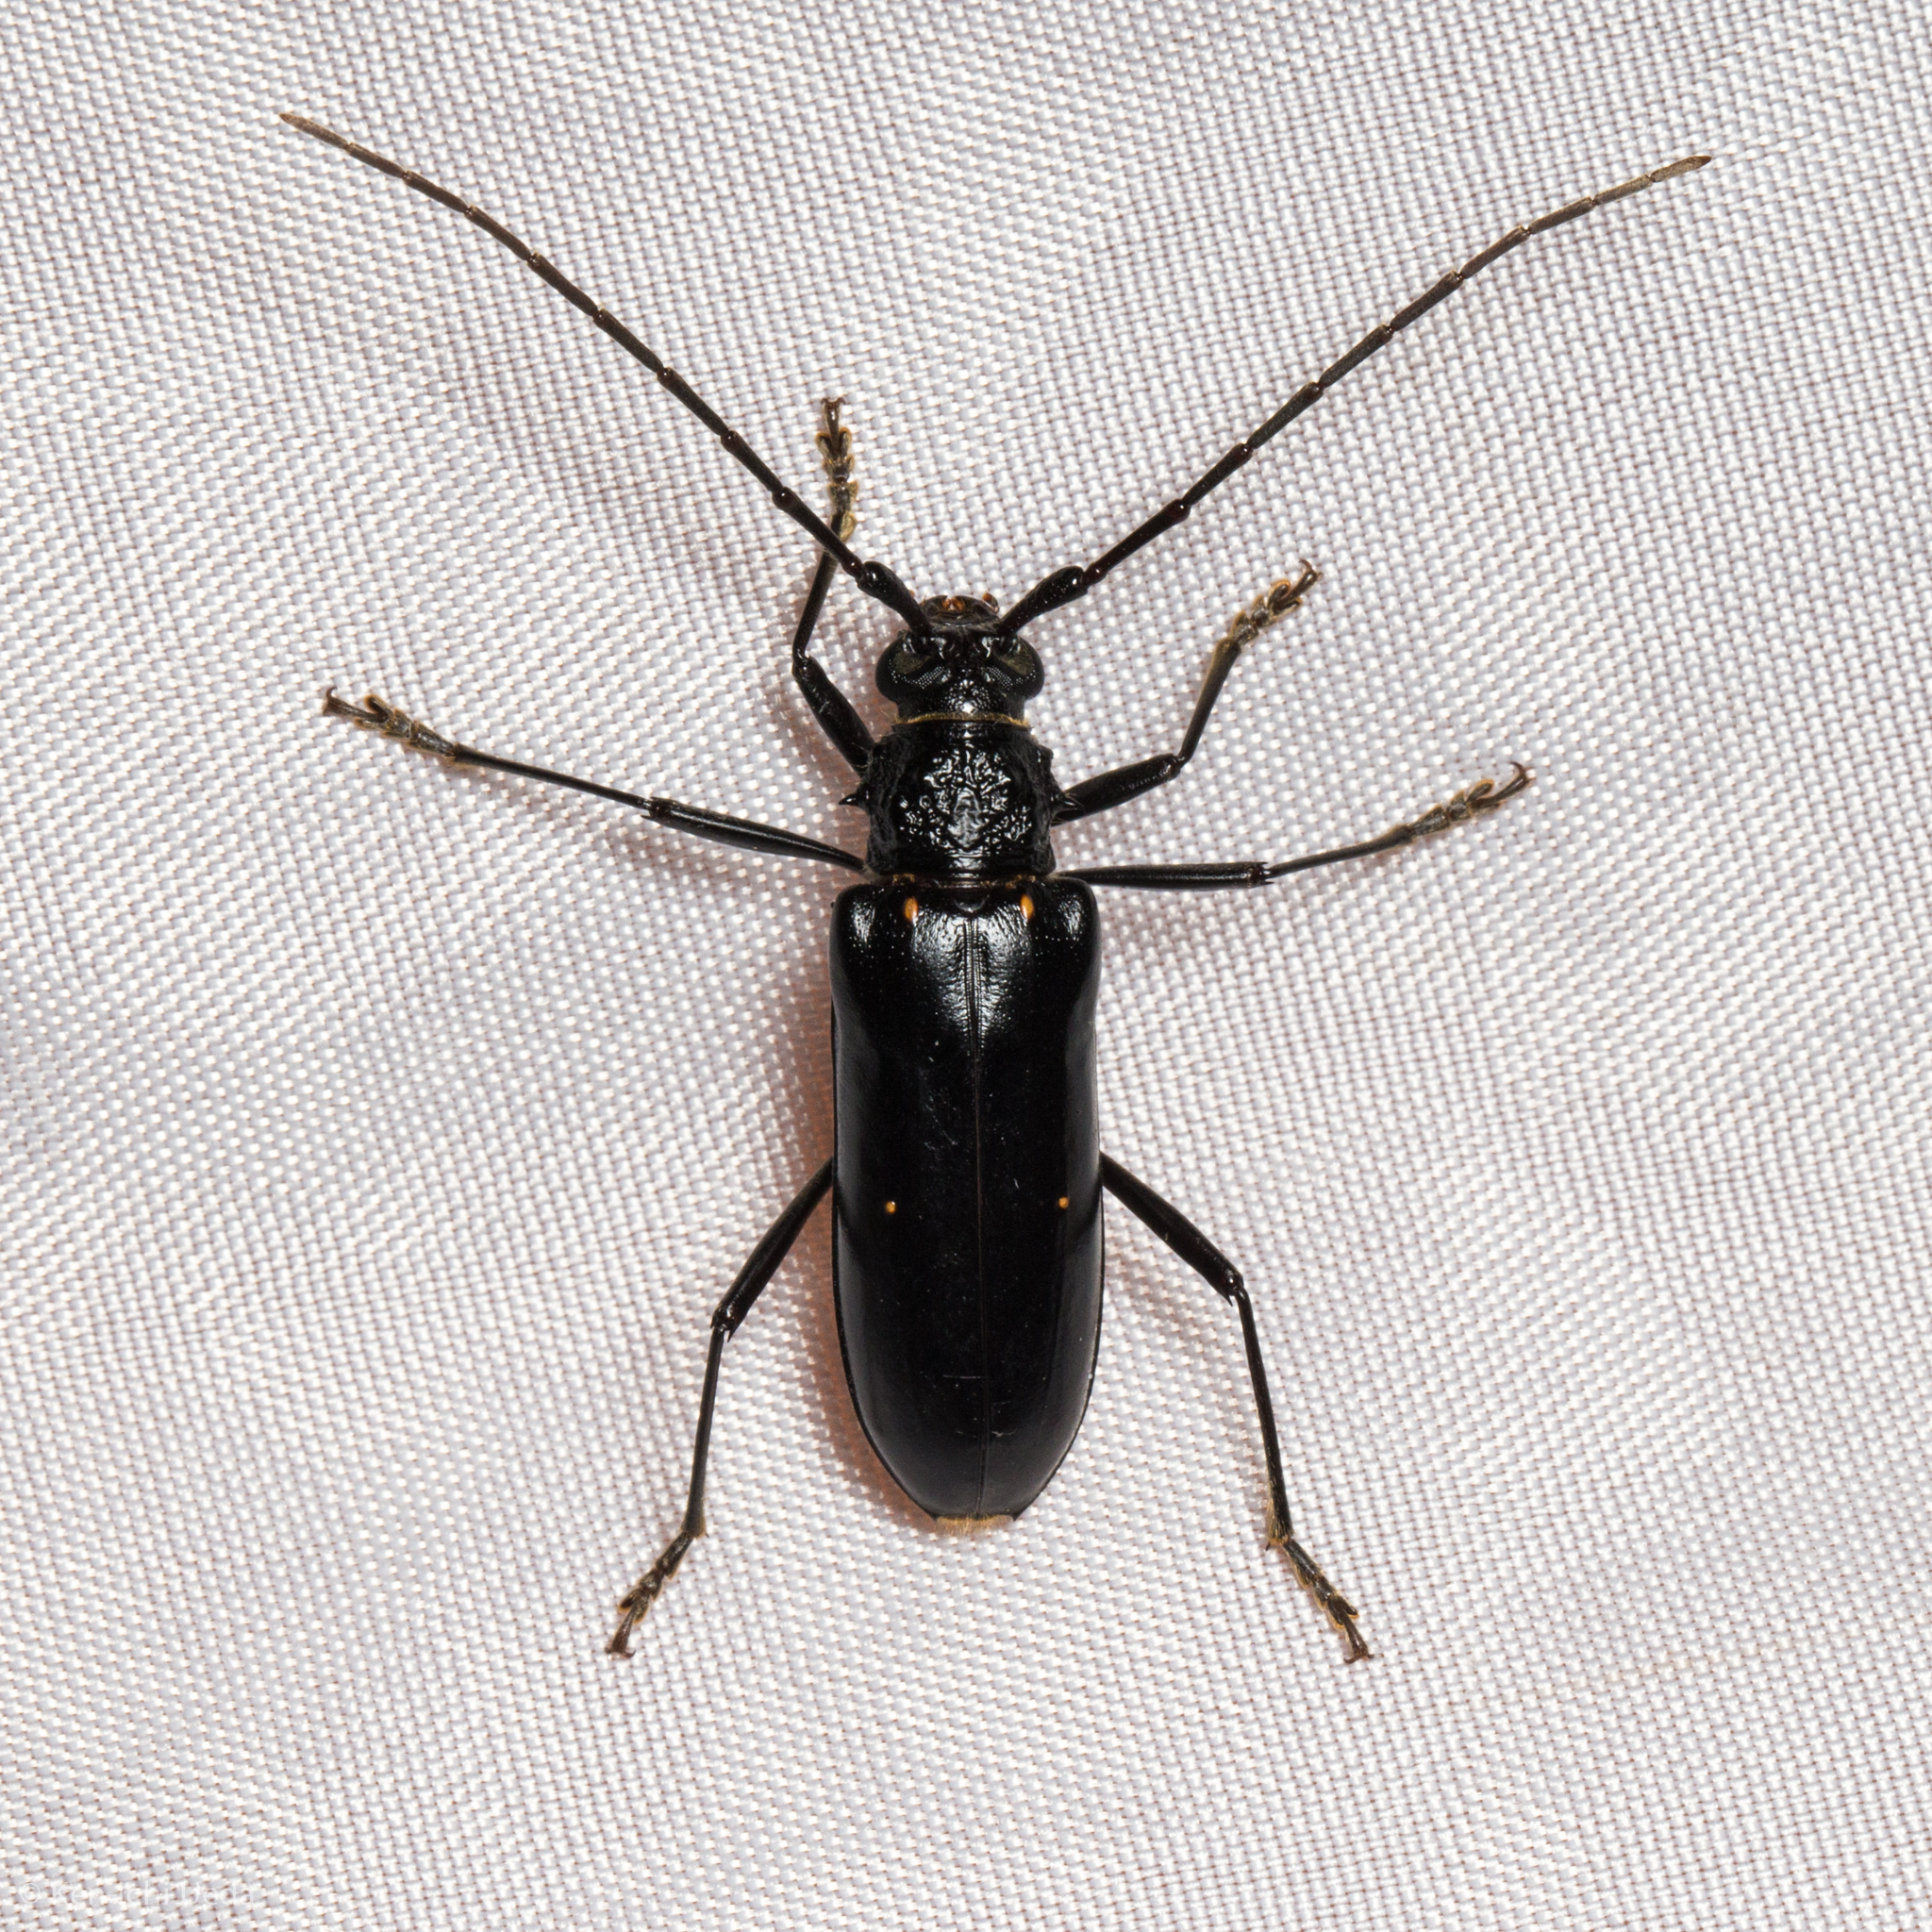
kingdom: Animalia
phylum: Arthropoda
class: Insecta
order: Coleoptera
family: Cerambycidae
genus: Susuacanga
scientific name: Susuacanga ulkei
